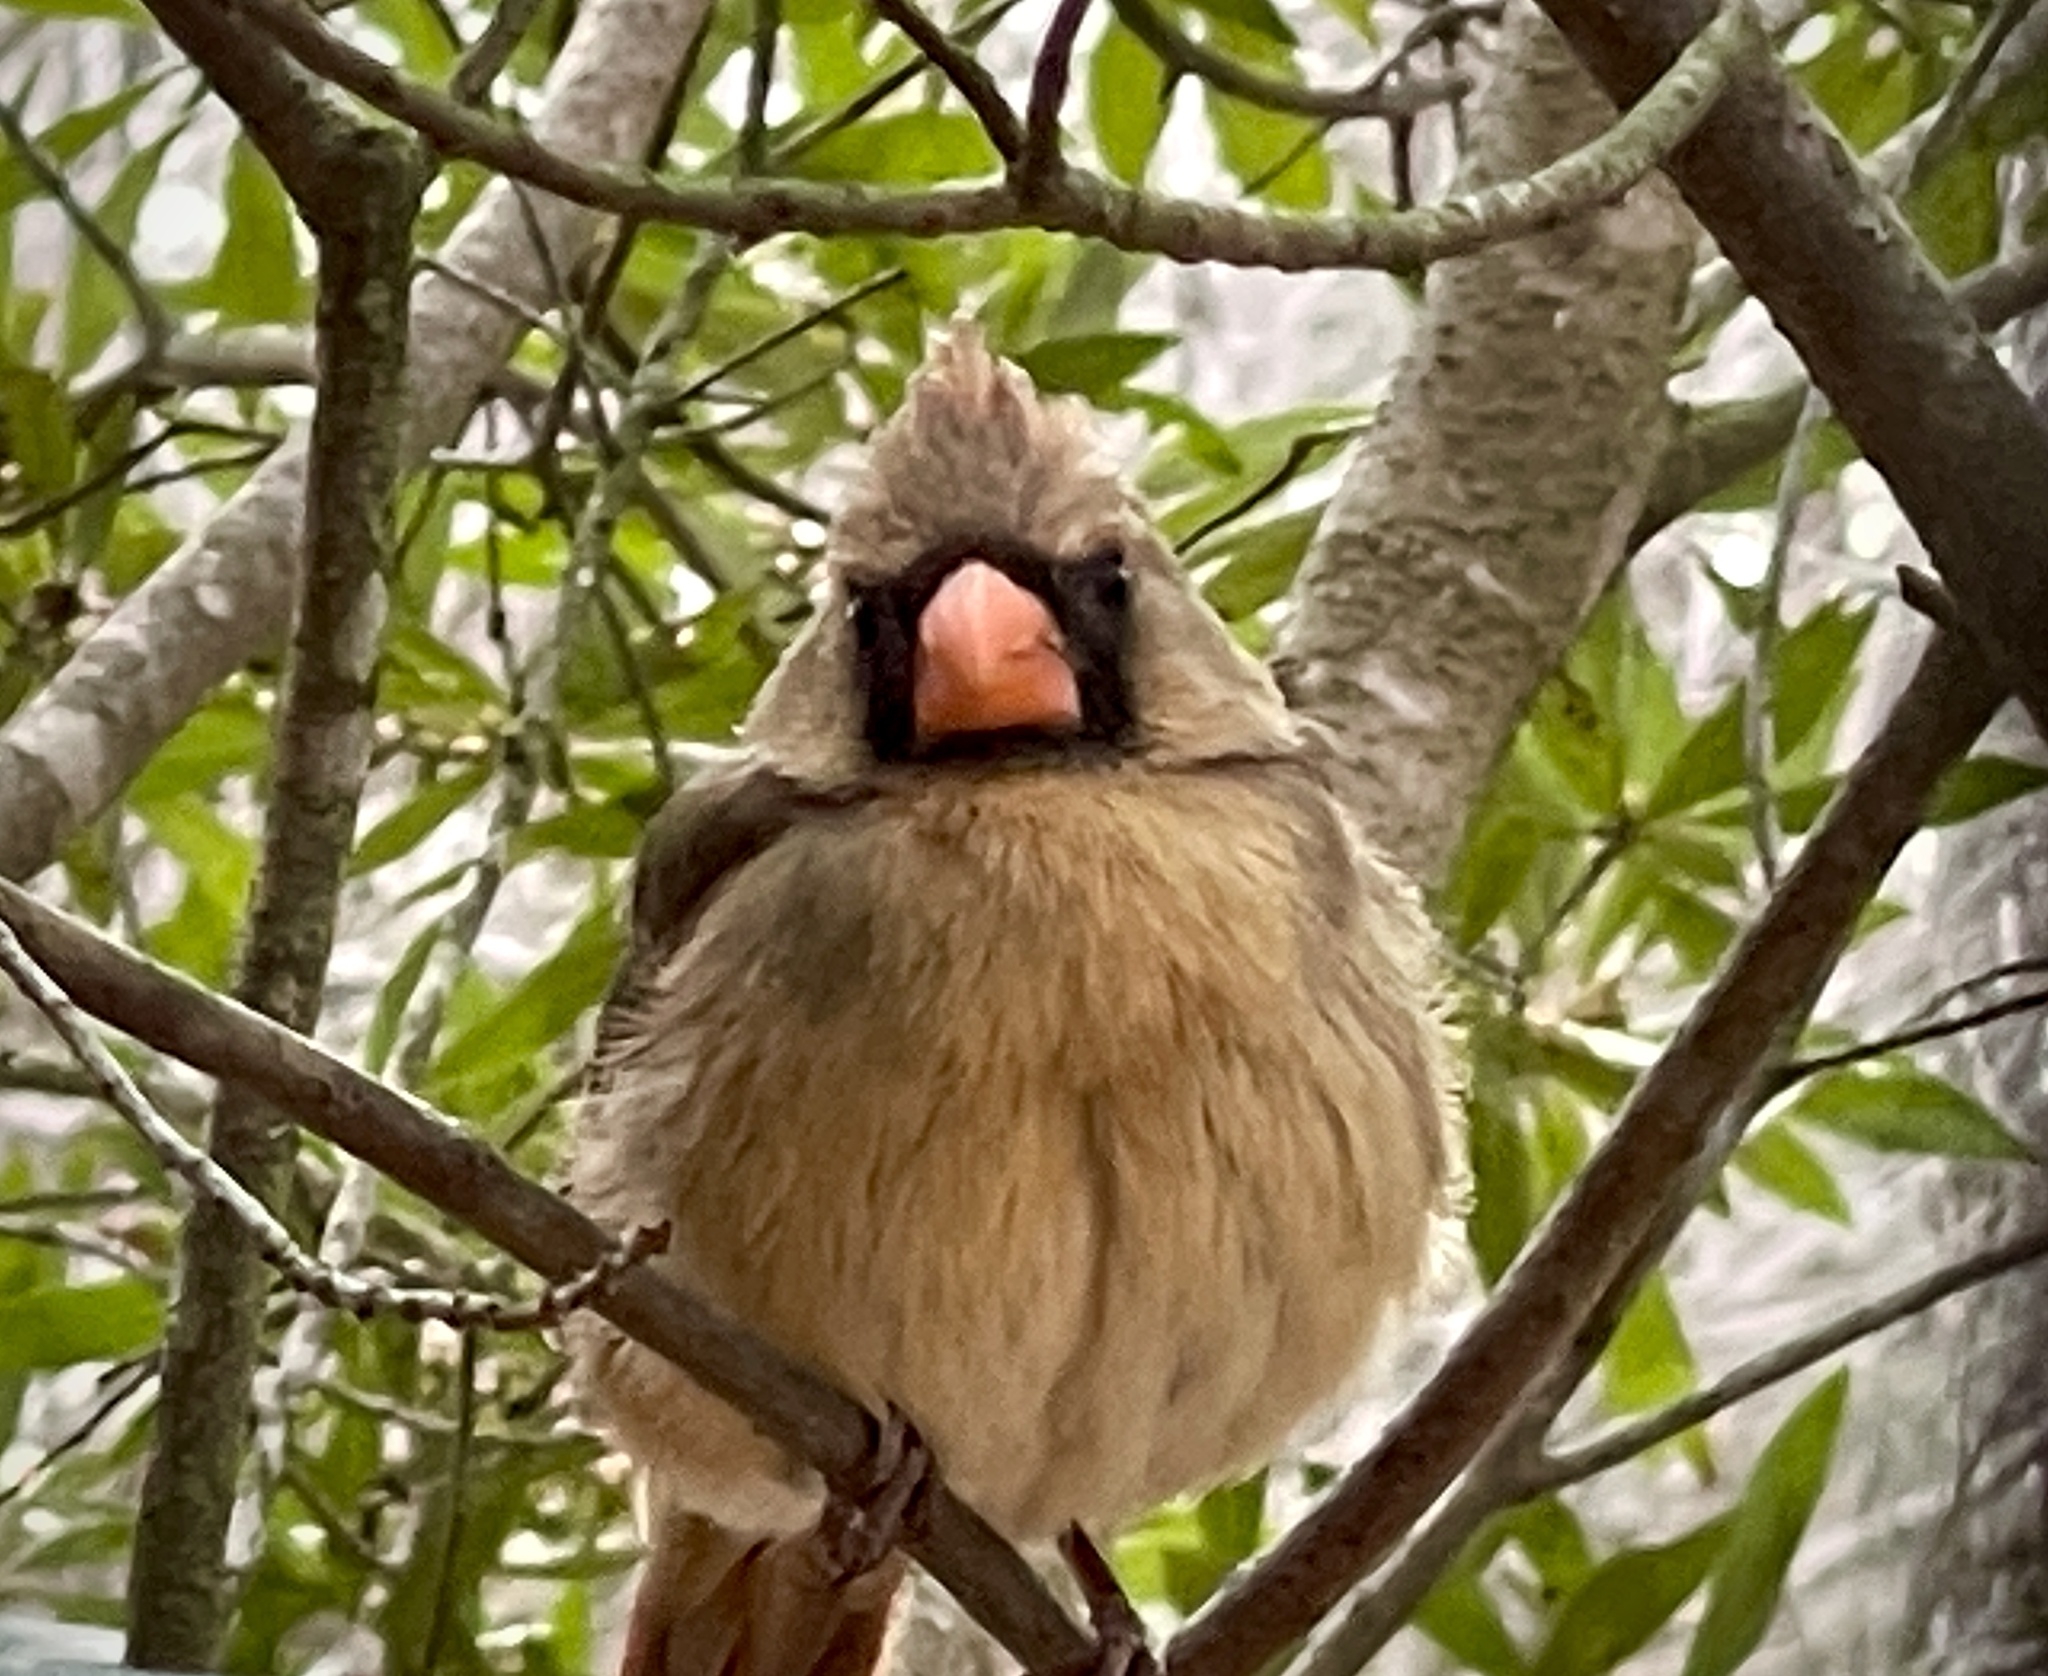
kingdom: Animalia
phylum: Chordata
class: Aves
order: Passeriformes
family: Cardinalidae
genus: Cardinalis
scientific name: Cardinalis cardinalis
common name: Northern cardinal
